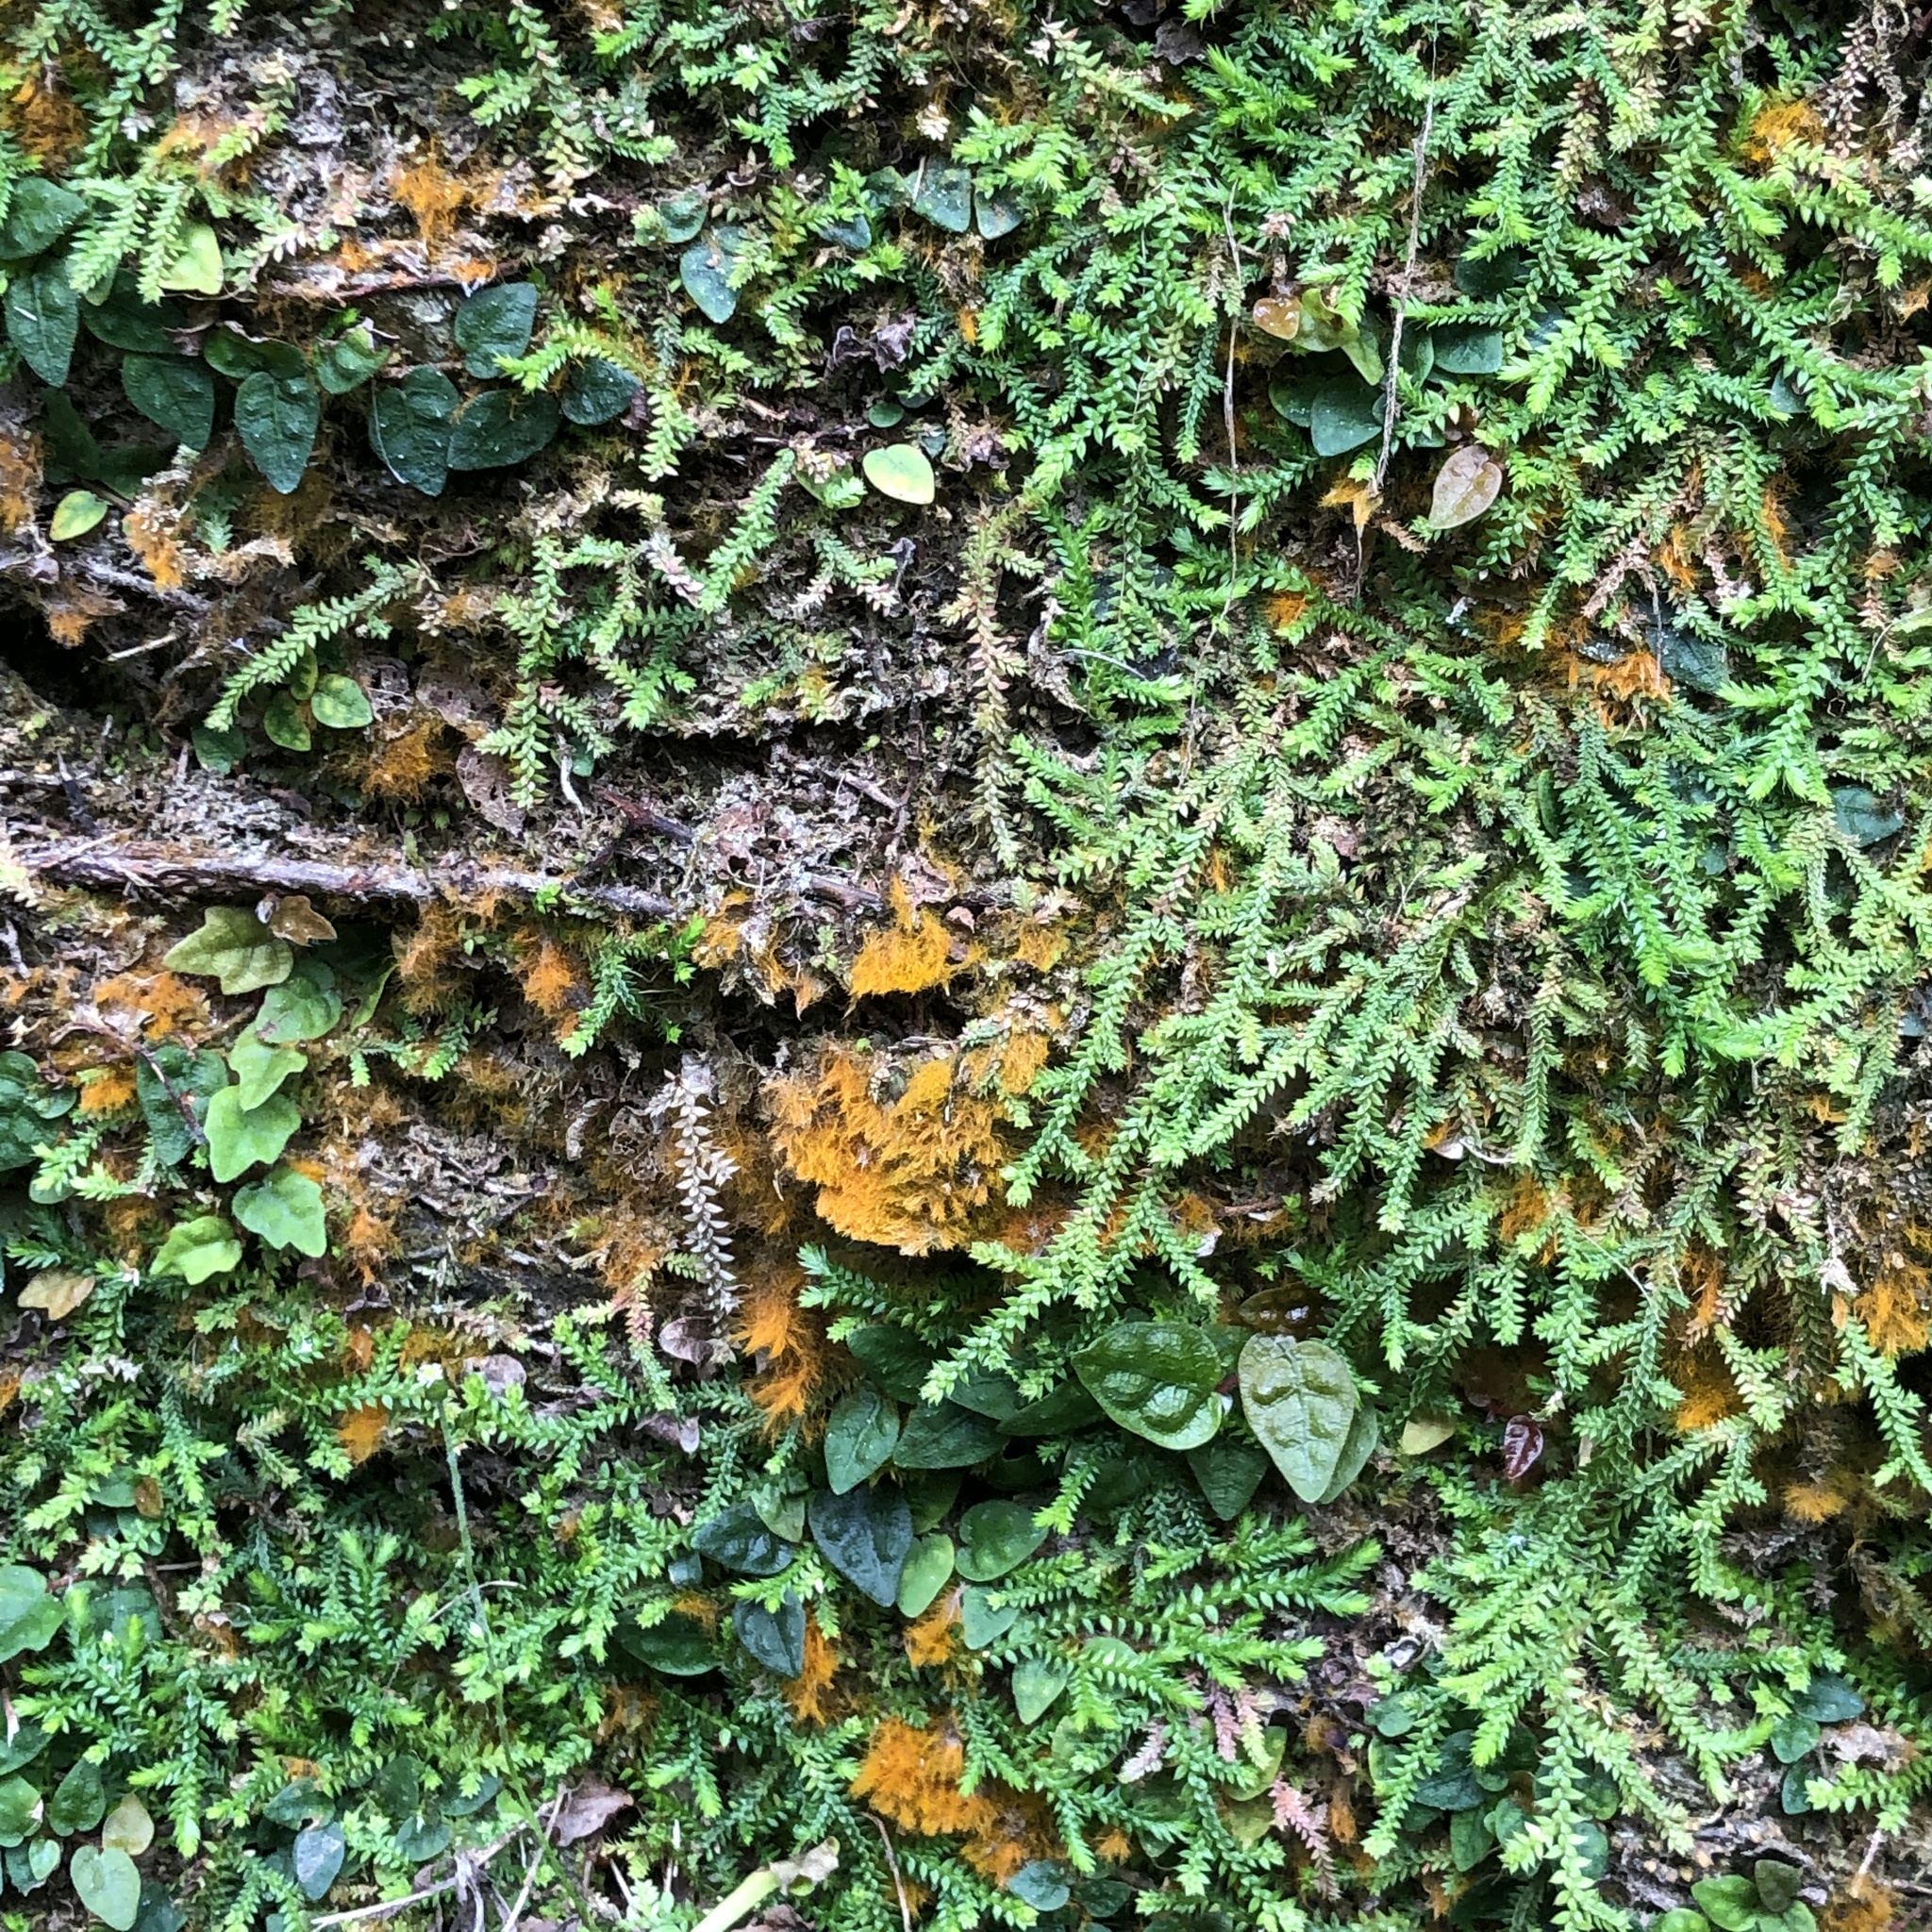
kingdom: Plantae
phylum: Tracheophyta
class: Lycopodiopsida
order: Selaginellales
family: Selaginellaceae
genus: Selaginella
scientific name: Selaginella lutchuensis
